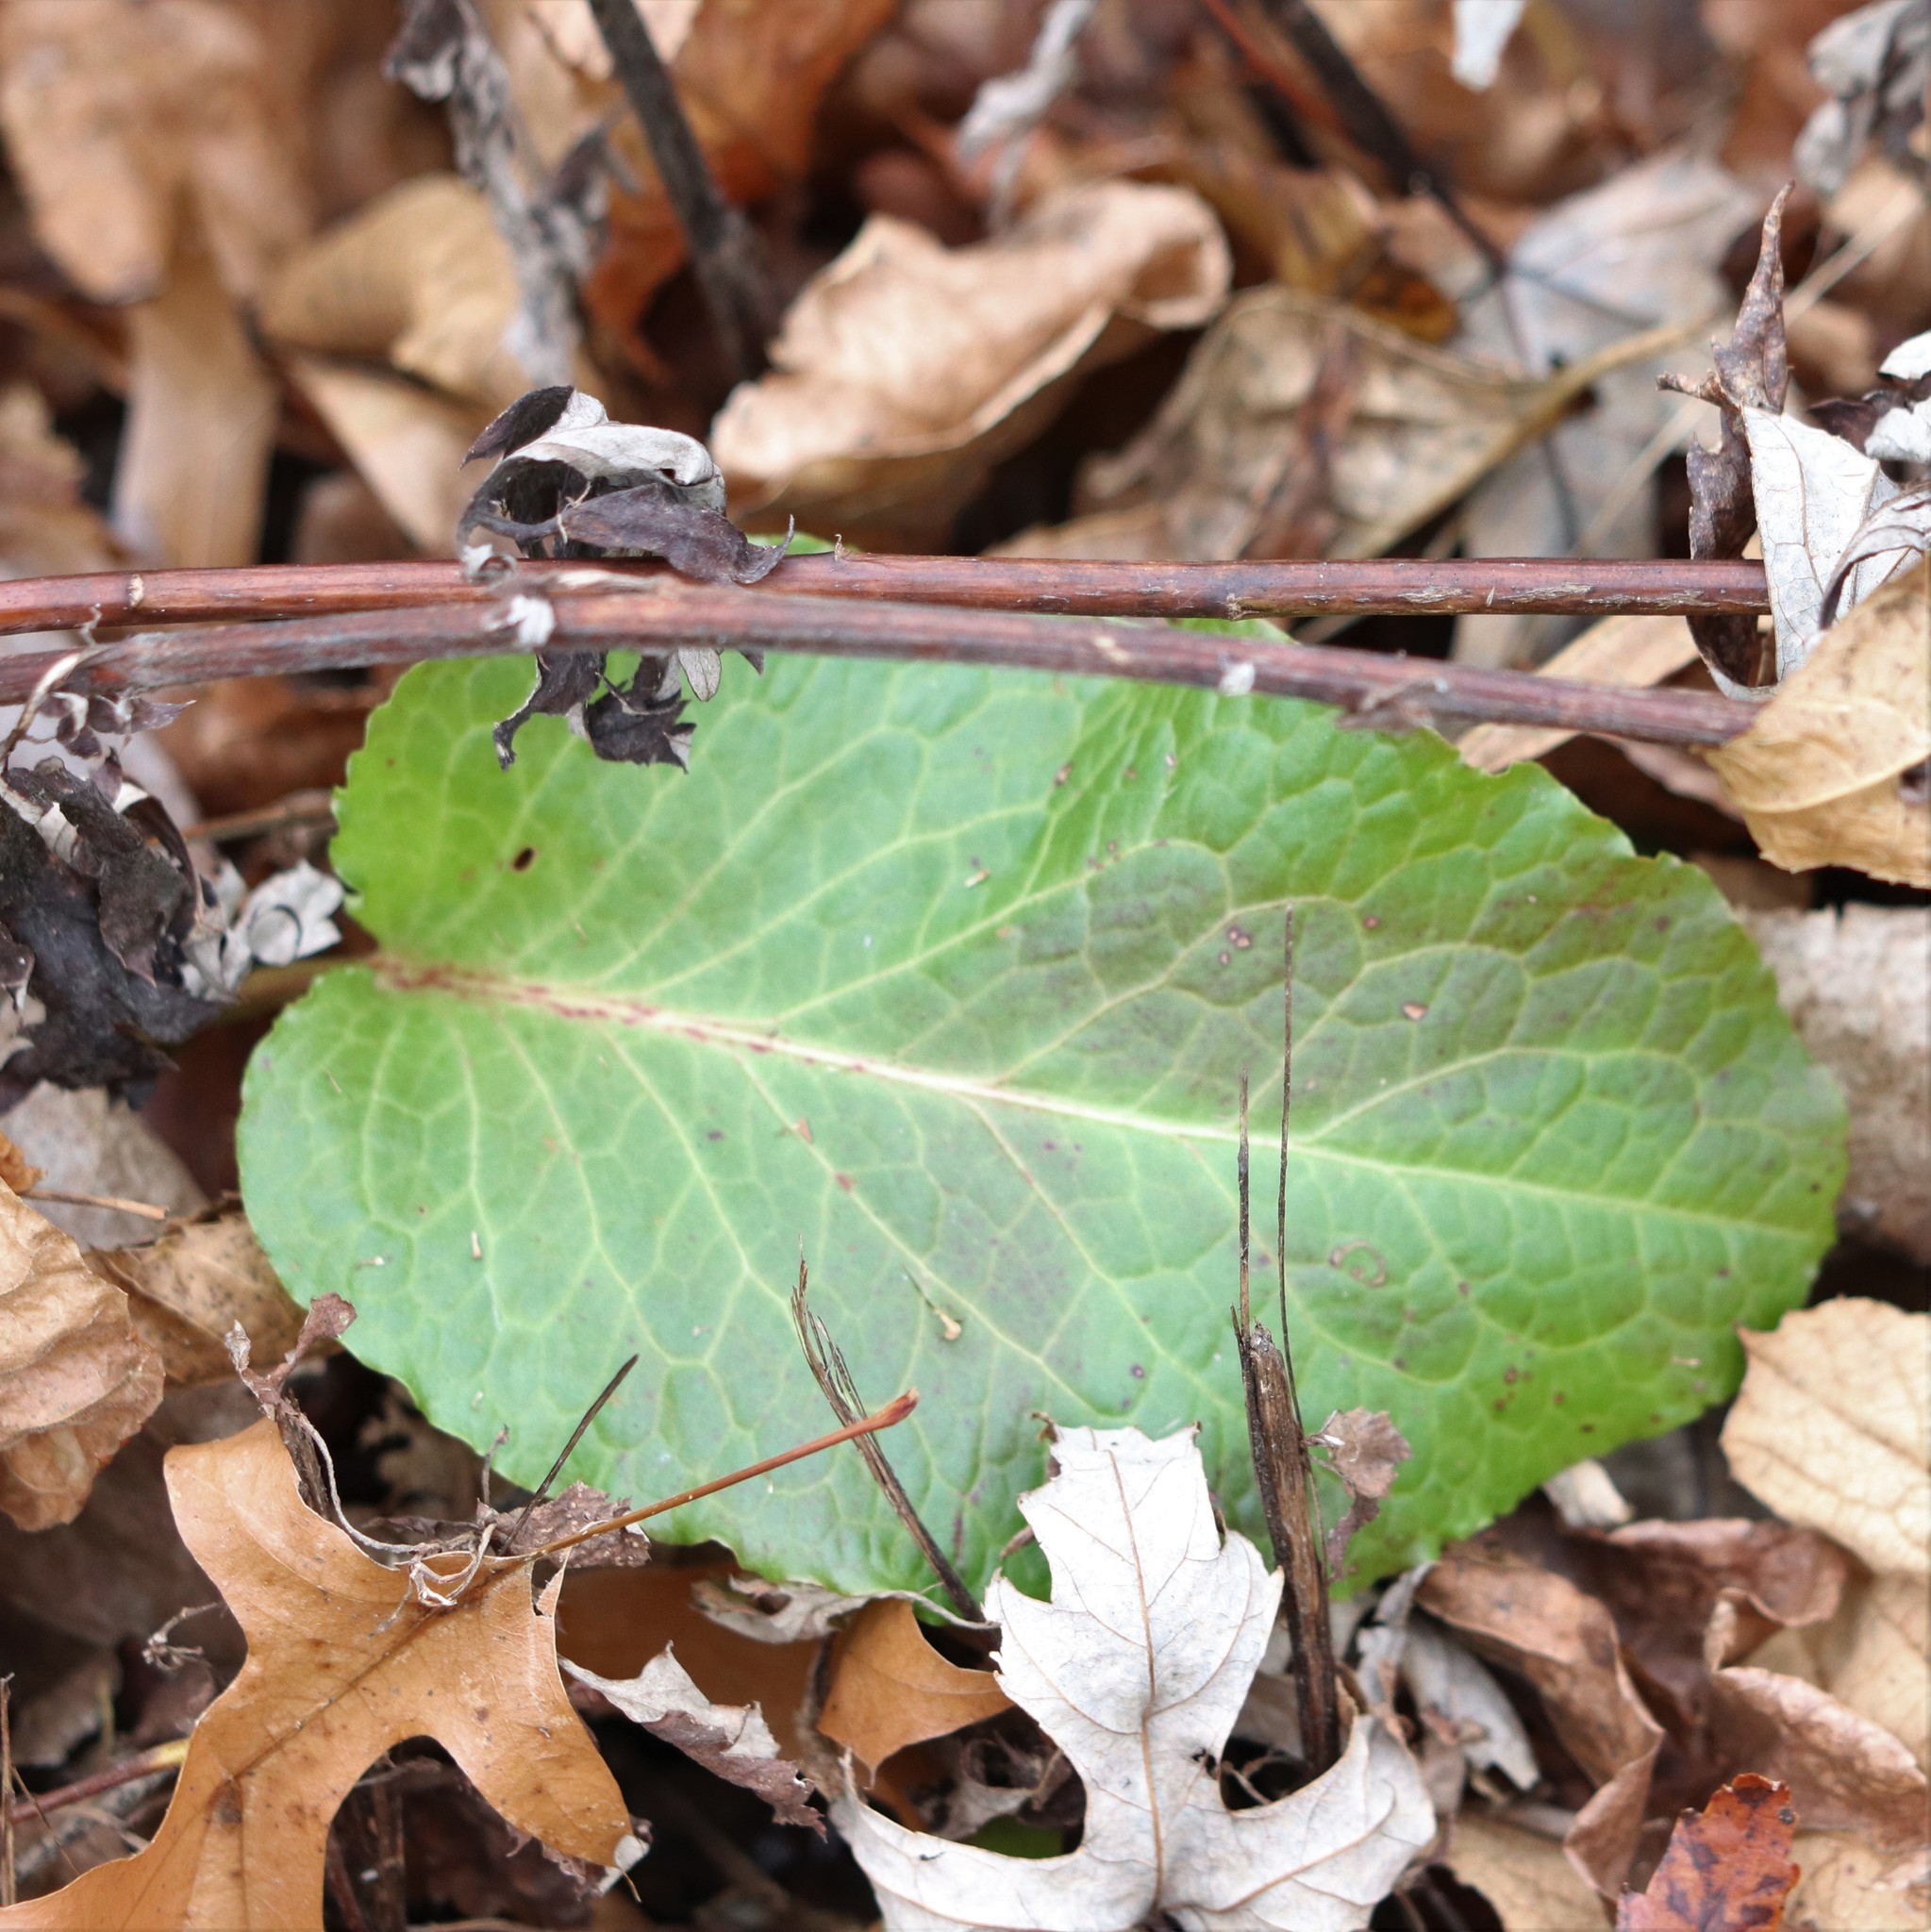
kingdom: Plantae
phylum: Tracheophyta
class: Magnoliopsida
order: Caryophyllales
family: Polygonaceae
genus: Rumex
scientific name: Rumex obtusifolius
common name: Bitter dock
